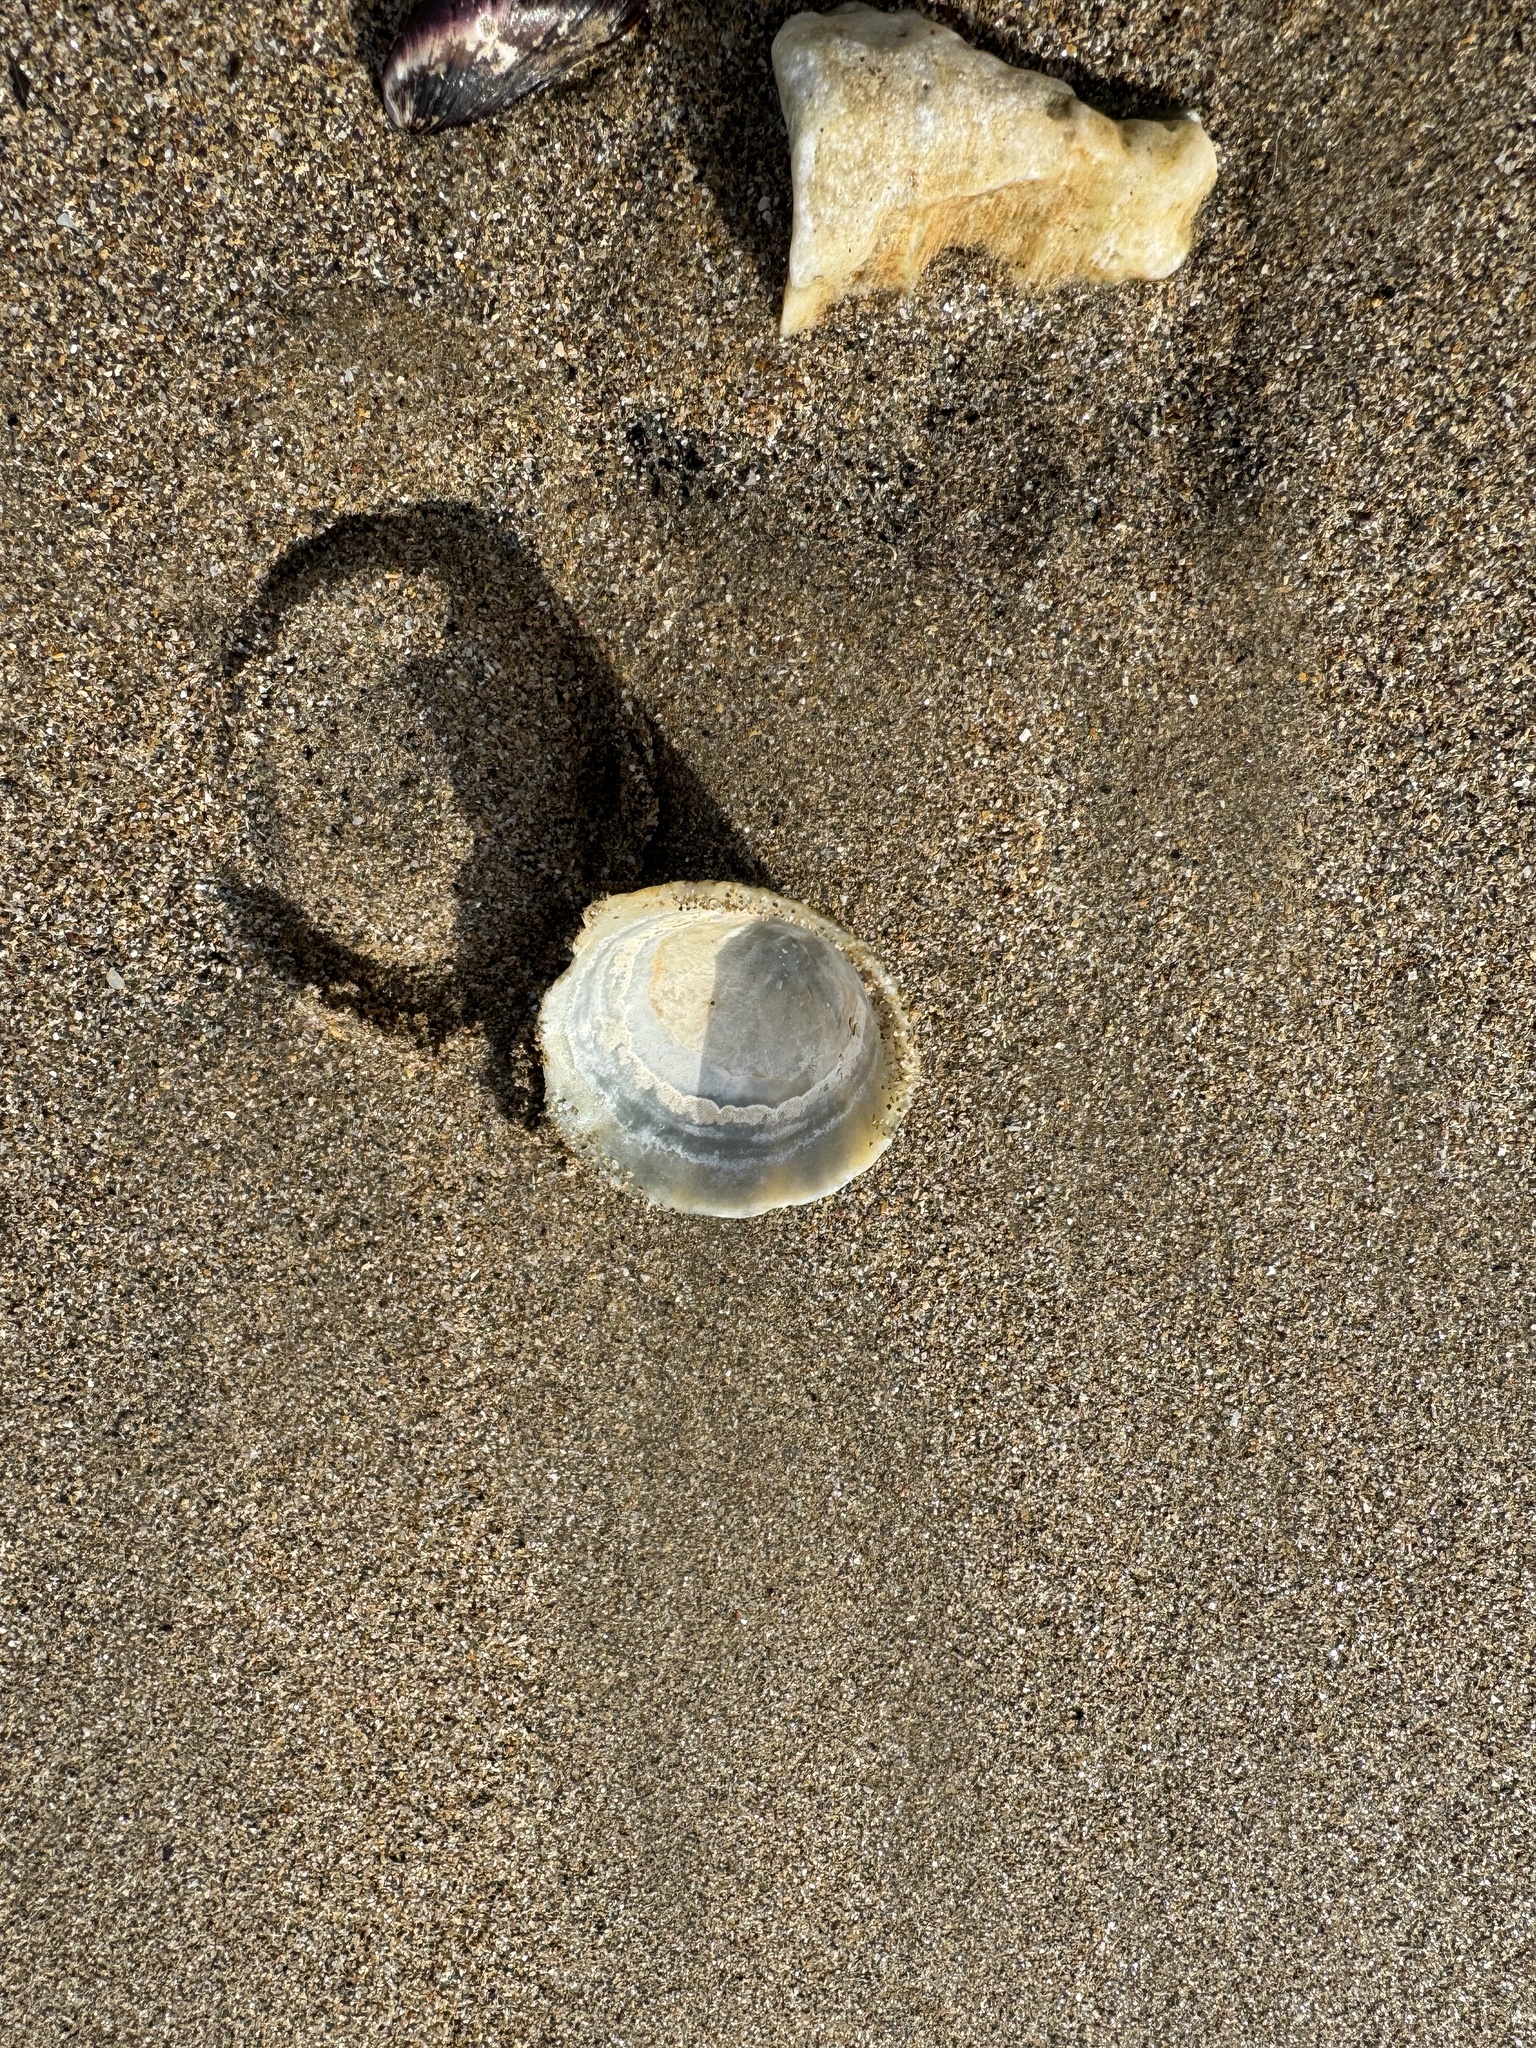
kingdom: Animalia
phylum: Mollusca
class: Gastropoda
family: Patellidae
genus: Patella
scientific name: Patella vulgata
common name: Common limpet
